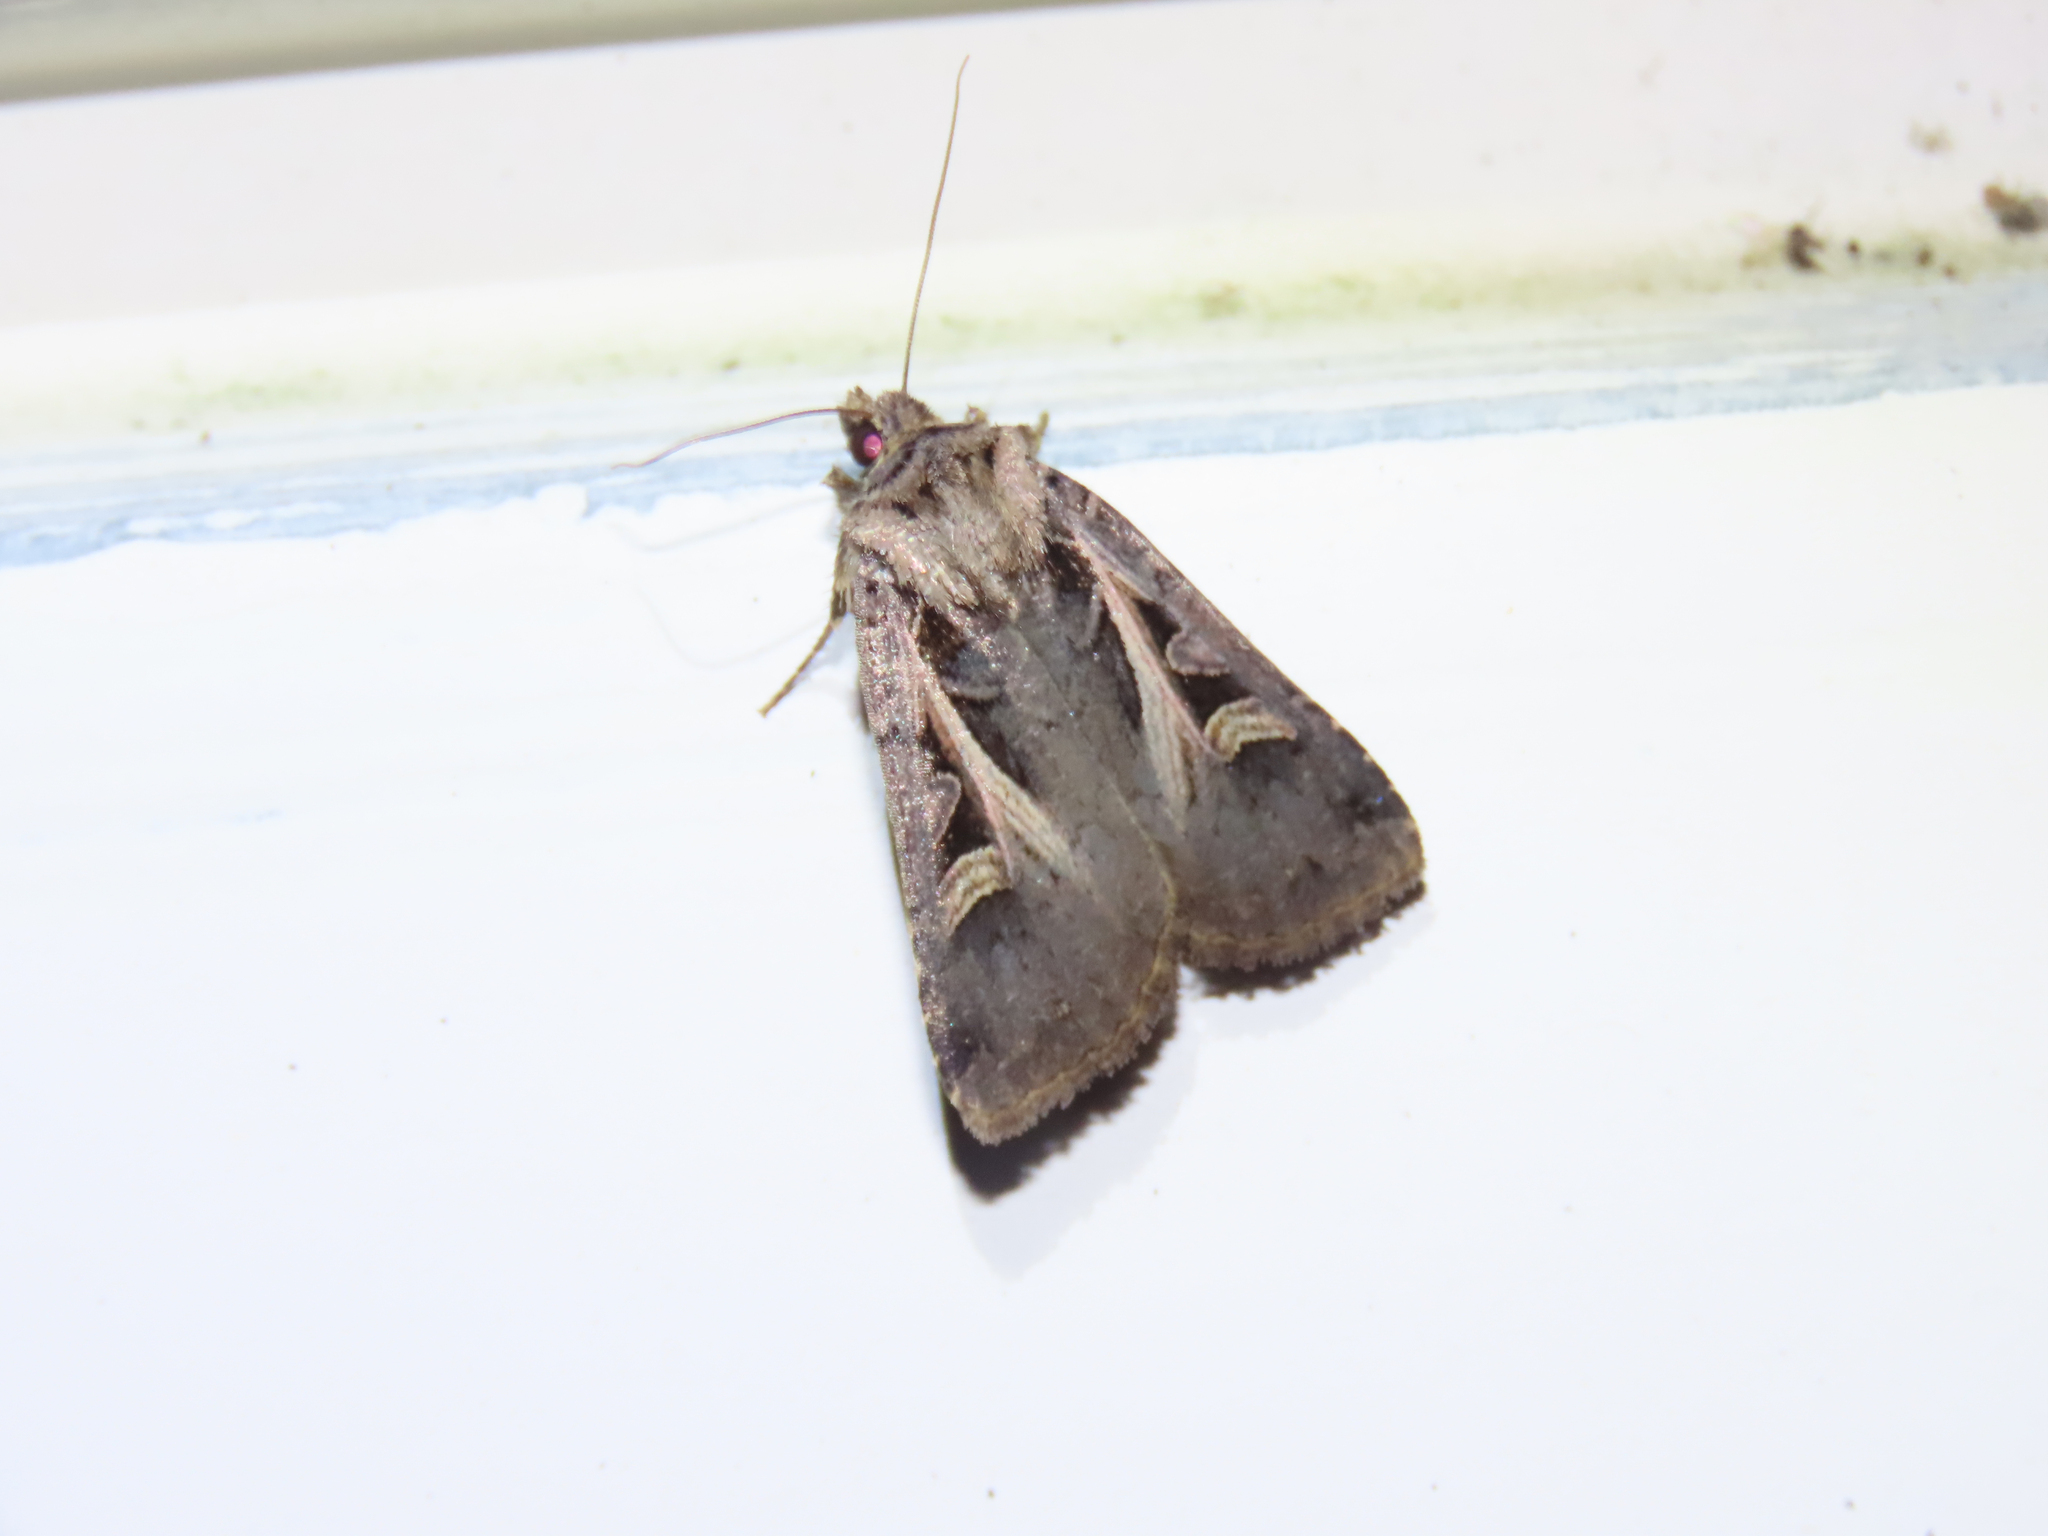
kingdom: Animalia
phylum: Arthropoda
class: Insecta
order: Lepidoptera
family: Noctuidae
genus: Feltia
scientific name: Feltia herilis
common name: Master's dart
